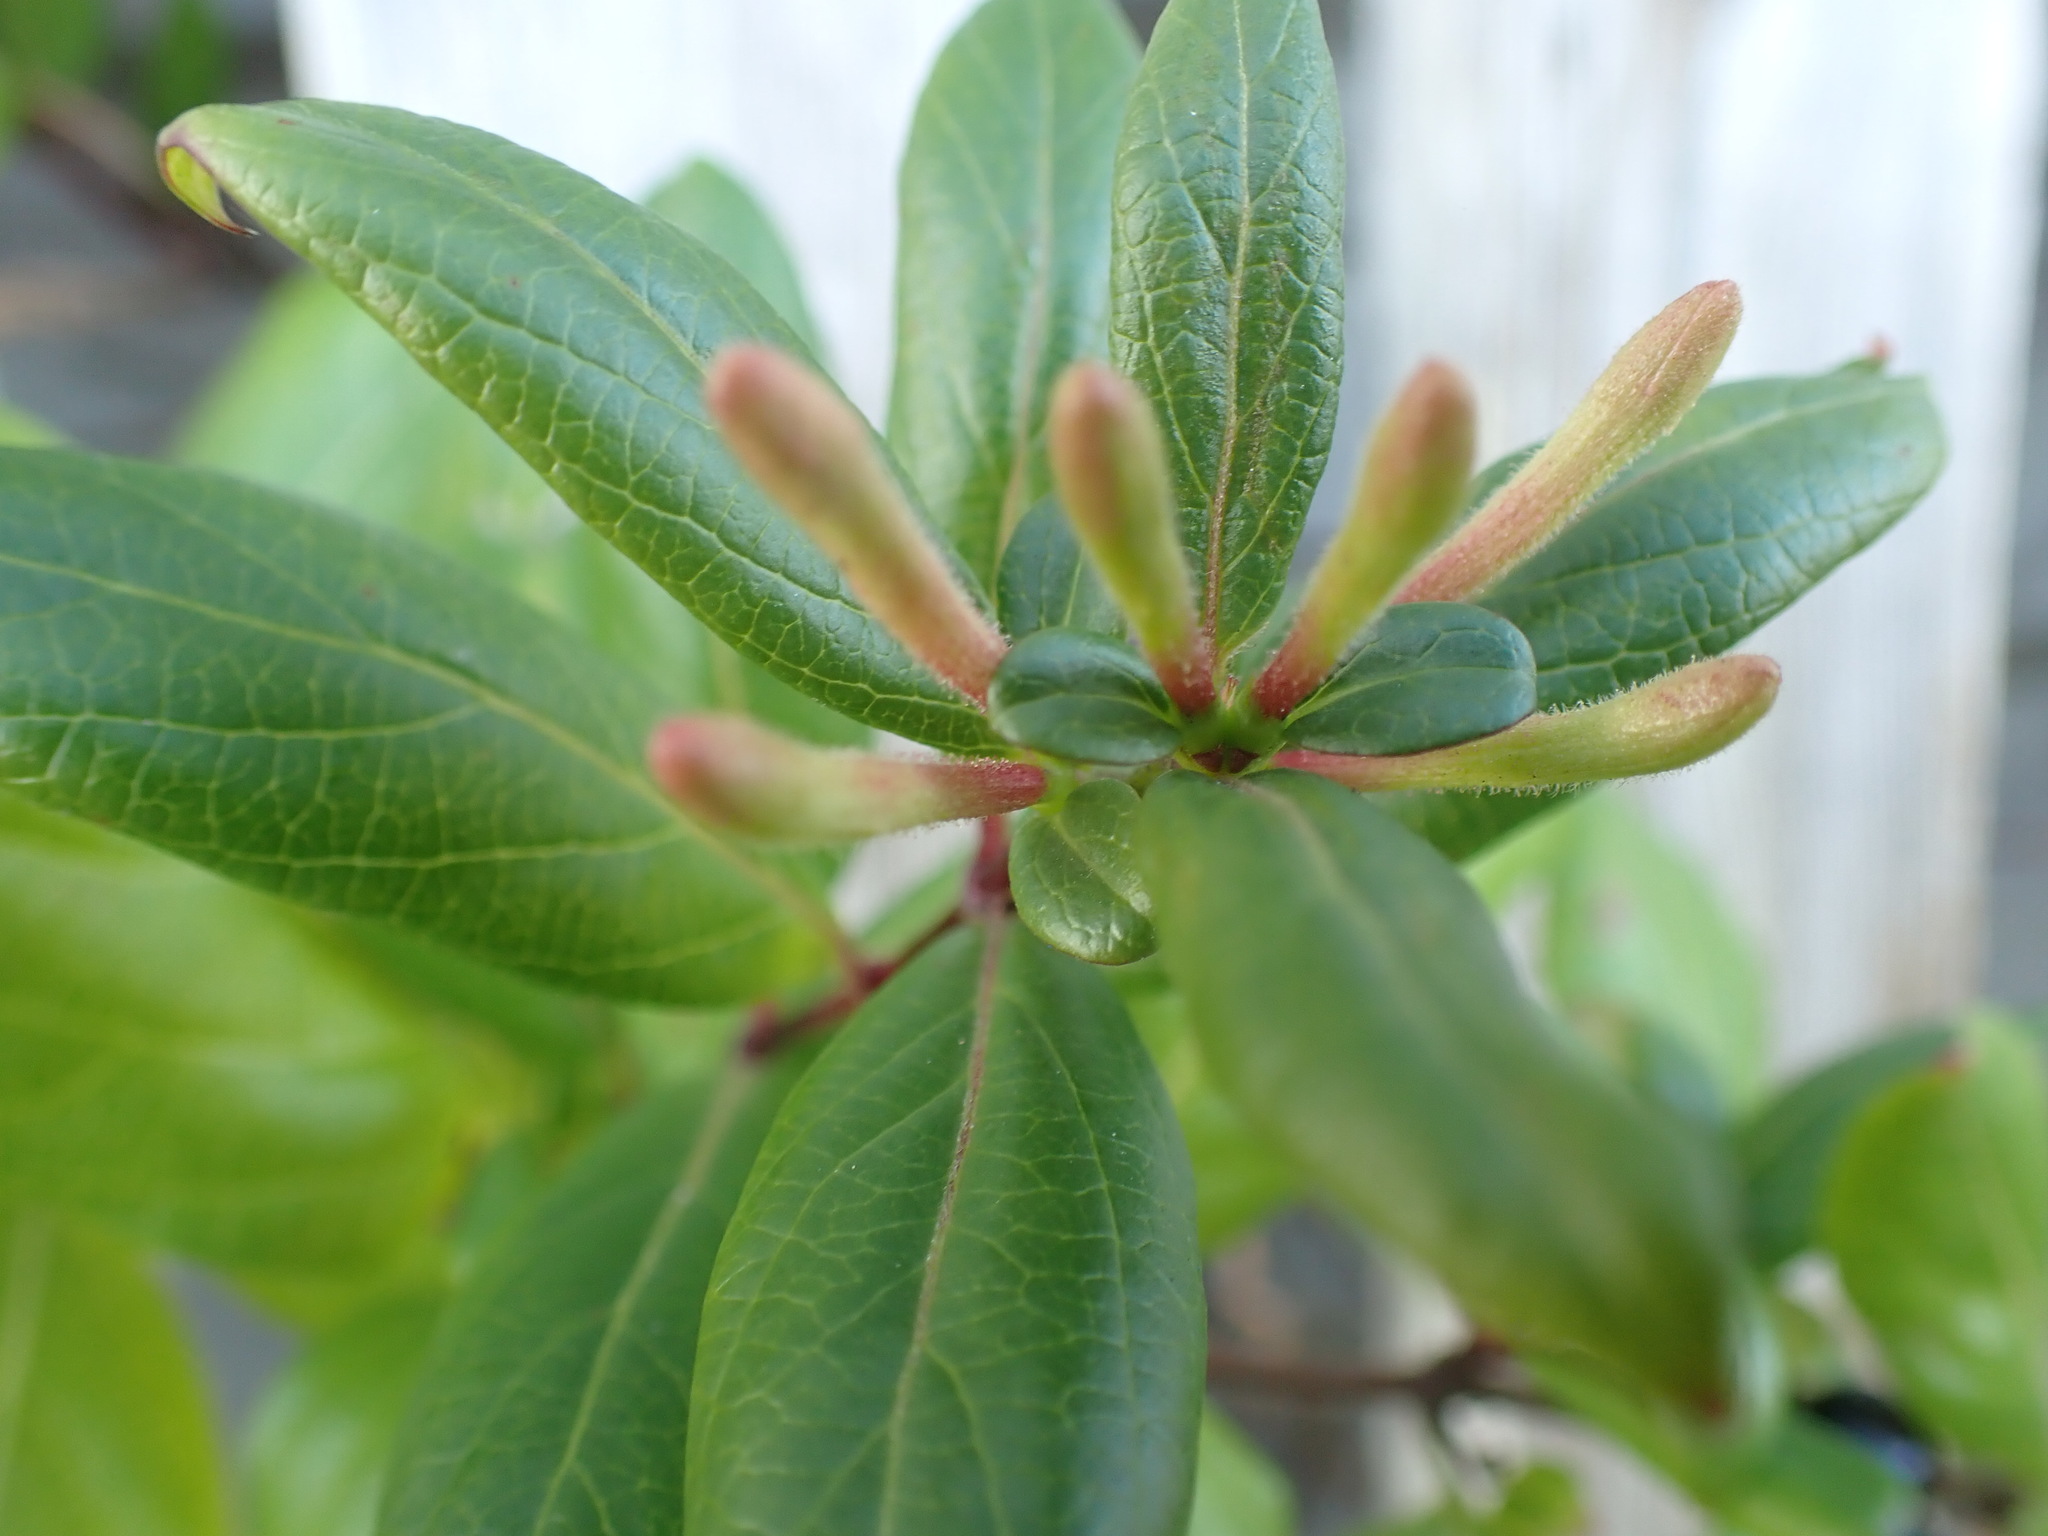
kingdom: Plantae
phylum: Tracheophyta
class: Magnoliopsida
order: Dipsacales
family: Caprifoliaceae
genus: Lonicera
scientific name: Lonicera japonica
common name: Japanese honeysuckle
